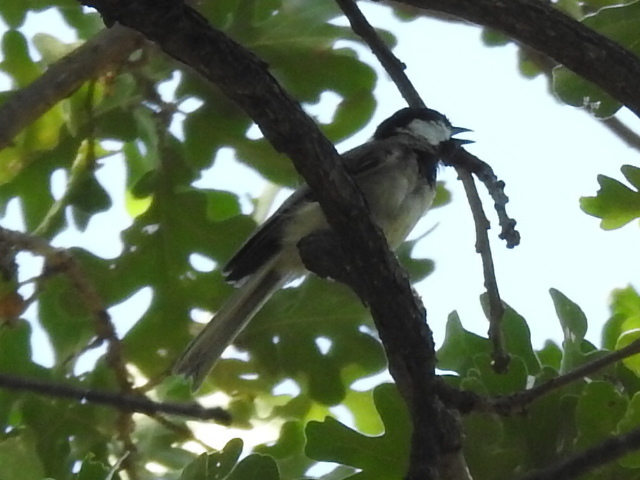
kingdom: Animalia
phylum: Chordata
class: Aves
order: Passeriformes
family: Paridae
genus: Poecile
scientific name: Poecile carolinensis
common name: Carolina chickadee
